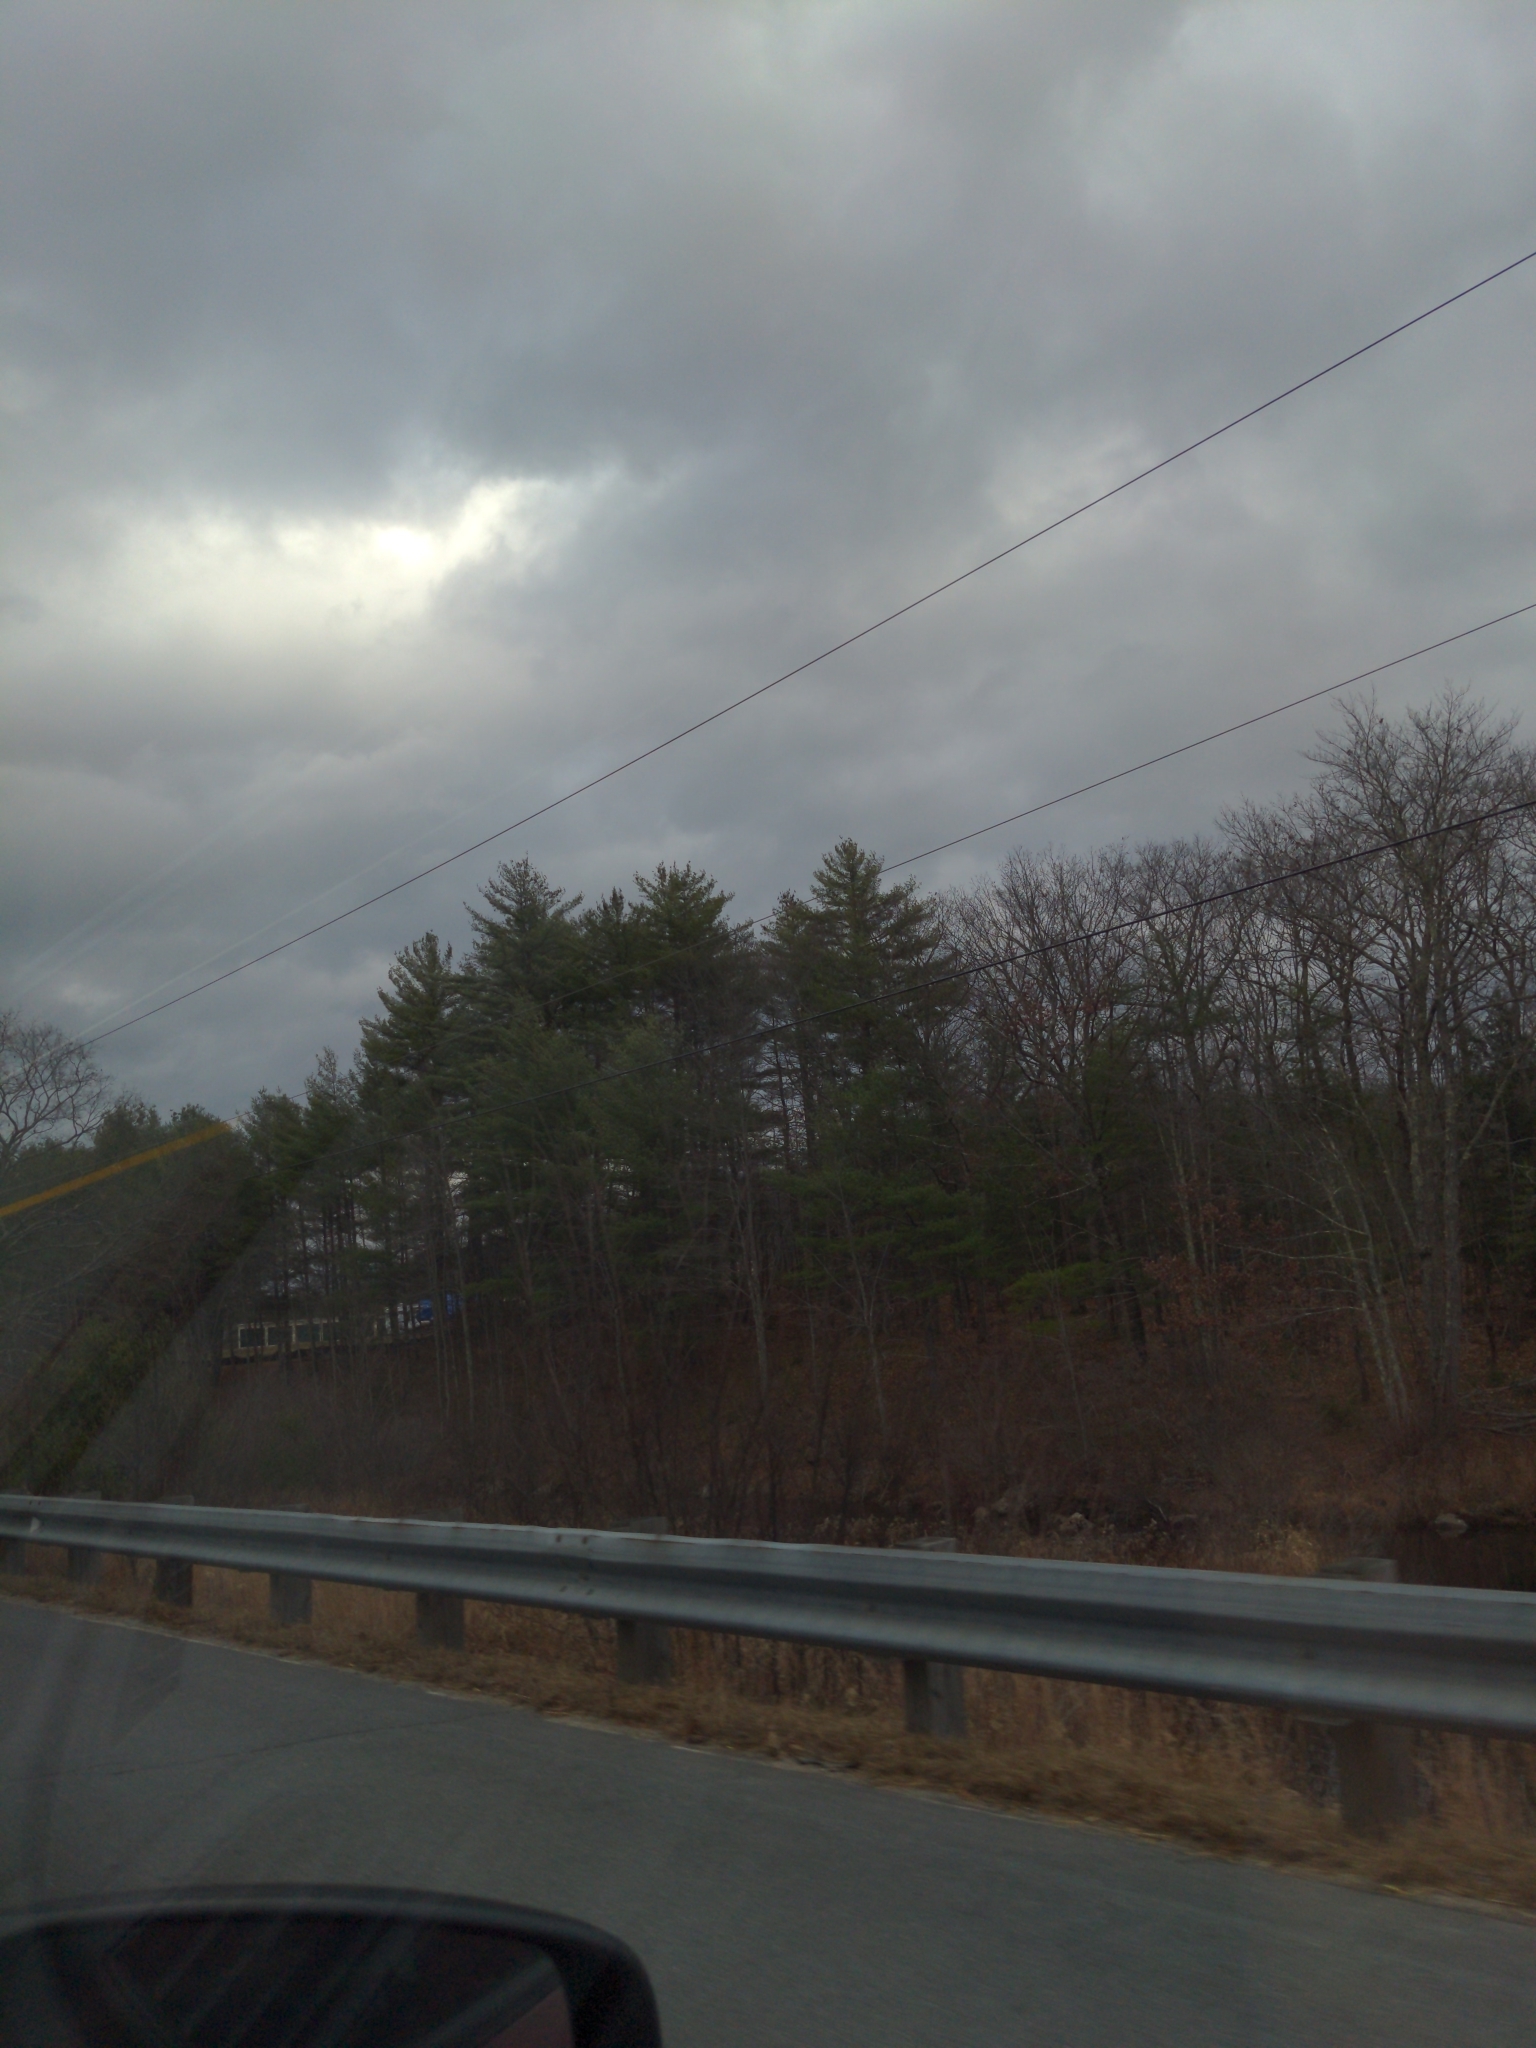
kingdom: Plantae
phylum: Tracheophyta
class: Pinopsida
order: Pinales
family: Pinaceae
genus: Pinus
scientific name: Pinus strobus
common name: Weymouth pine
